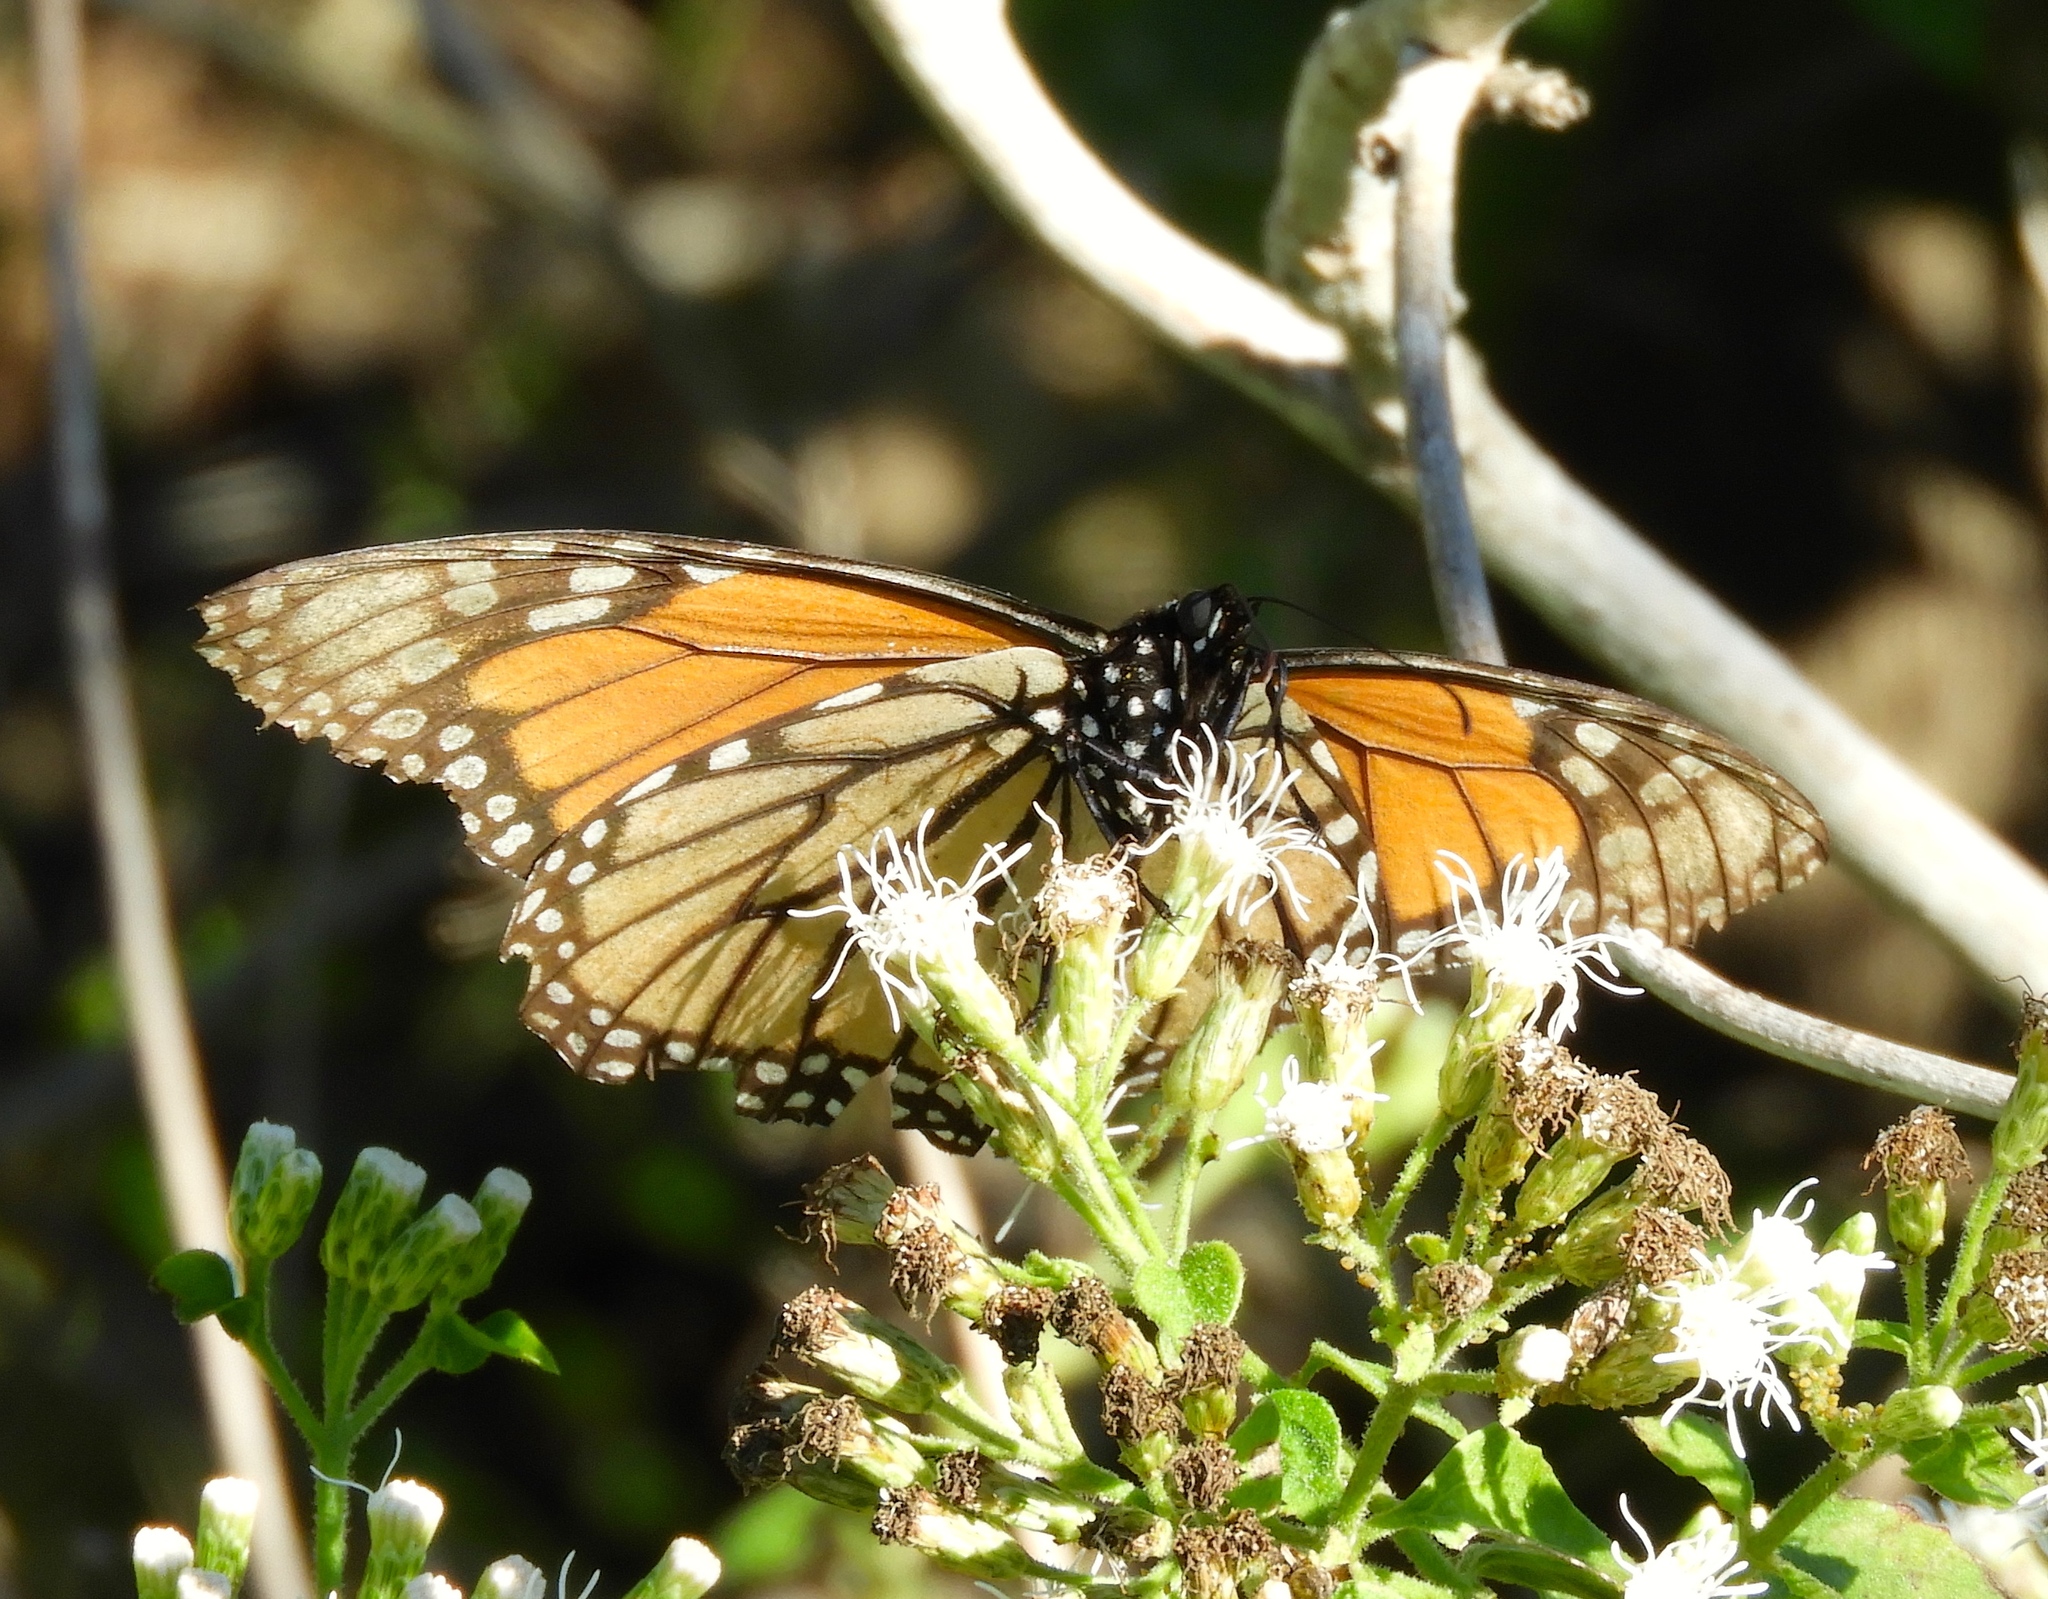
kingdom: Animalia
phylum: Arthropoda
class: Insecta
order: Lepidoptera
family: Nymphalidae
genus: Danaus
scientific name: Danaus plexippus
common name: Monarch
